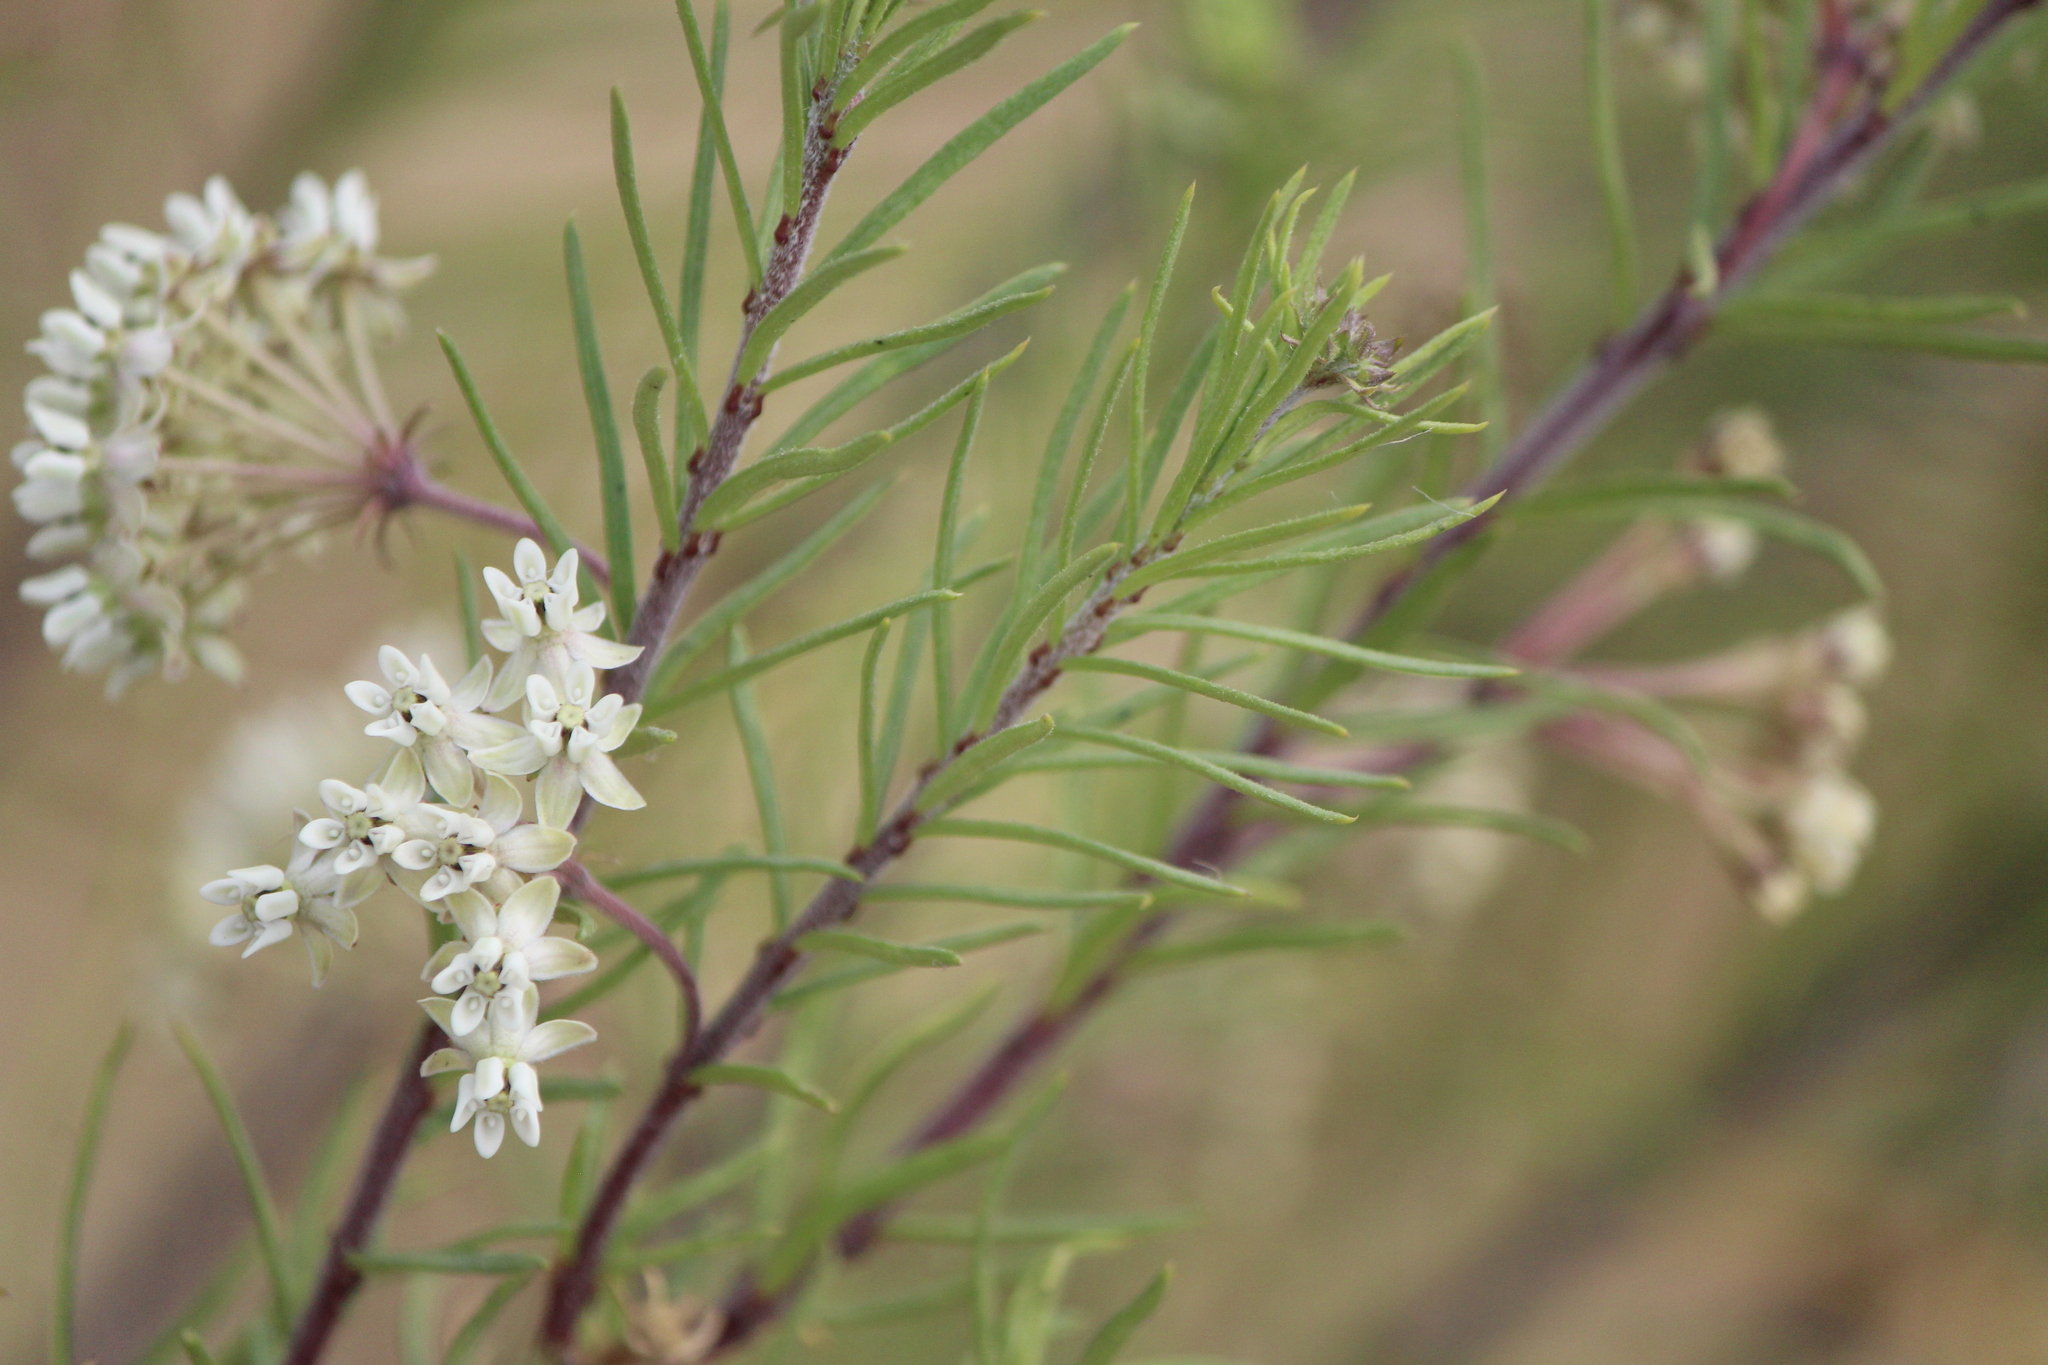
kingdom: Plantae
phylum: Tracheophyta
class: Magnoliopsida
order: Gentianales
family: Apocynaceae
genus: Asclepias
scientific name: Asclepias linaria
